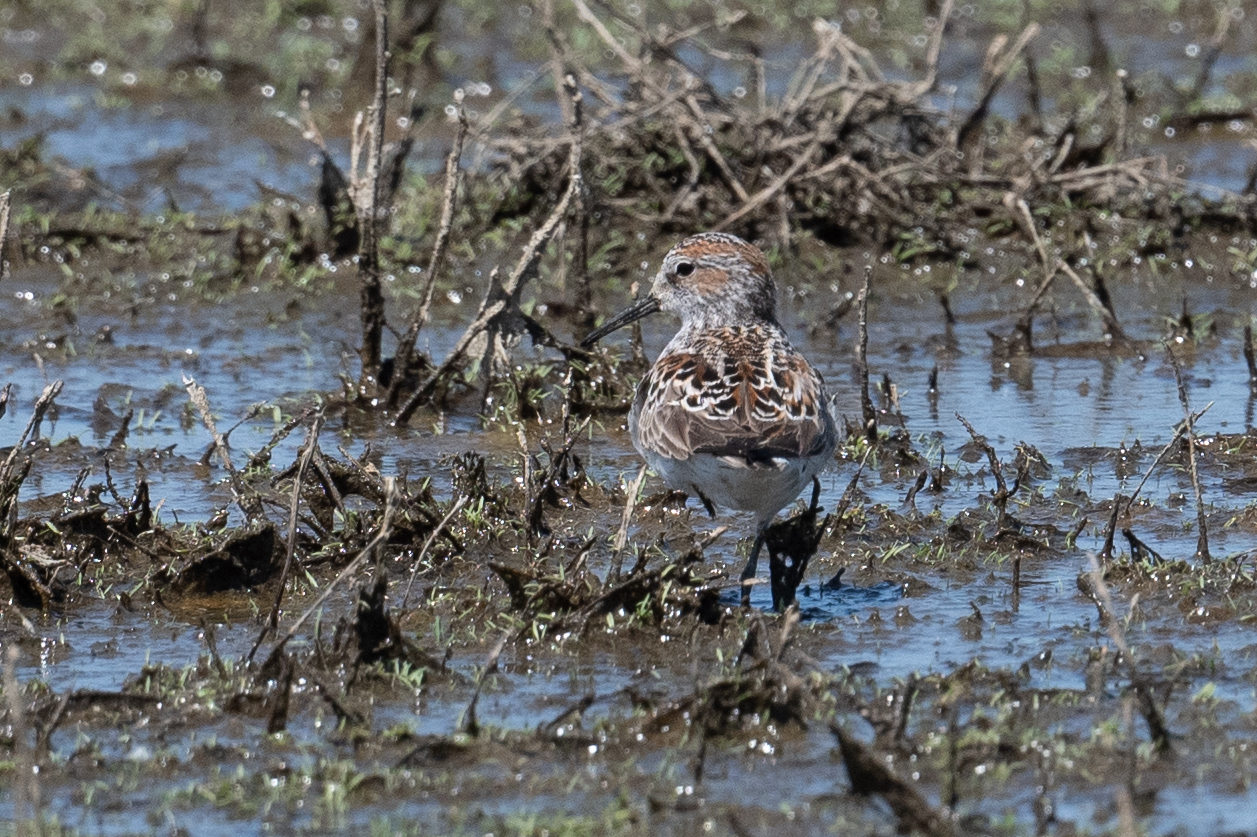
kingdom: Animalia
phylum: Chordata
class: Aves
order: Charadriiformes
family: Scolopacidae
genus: Calidris
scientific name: Calidris mauri
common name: Western sandpiper
